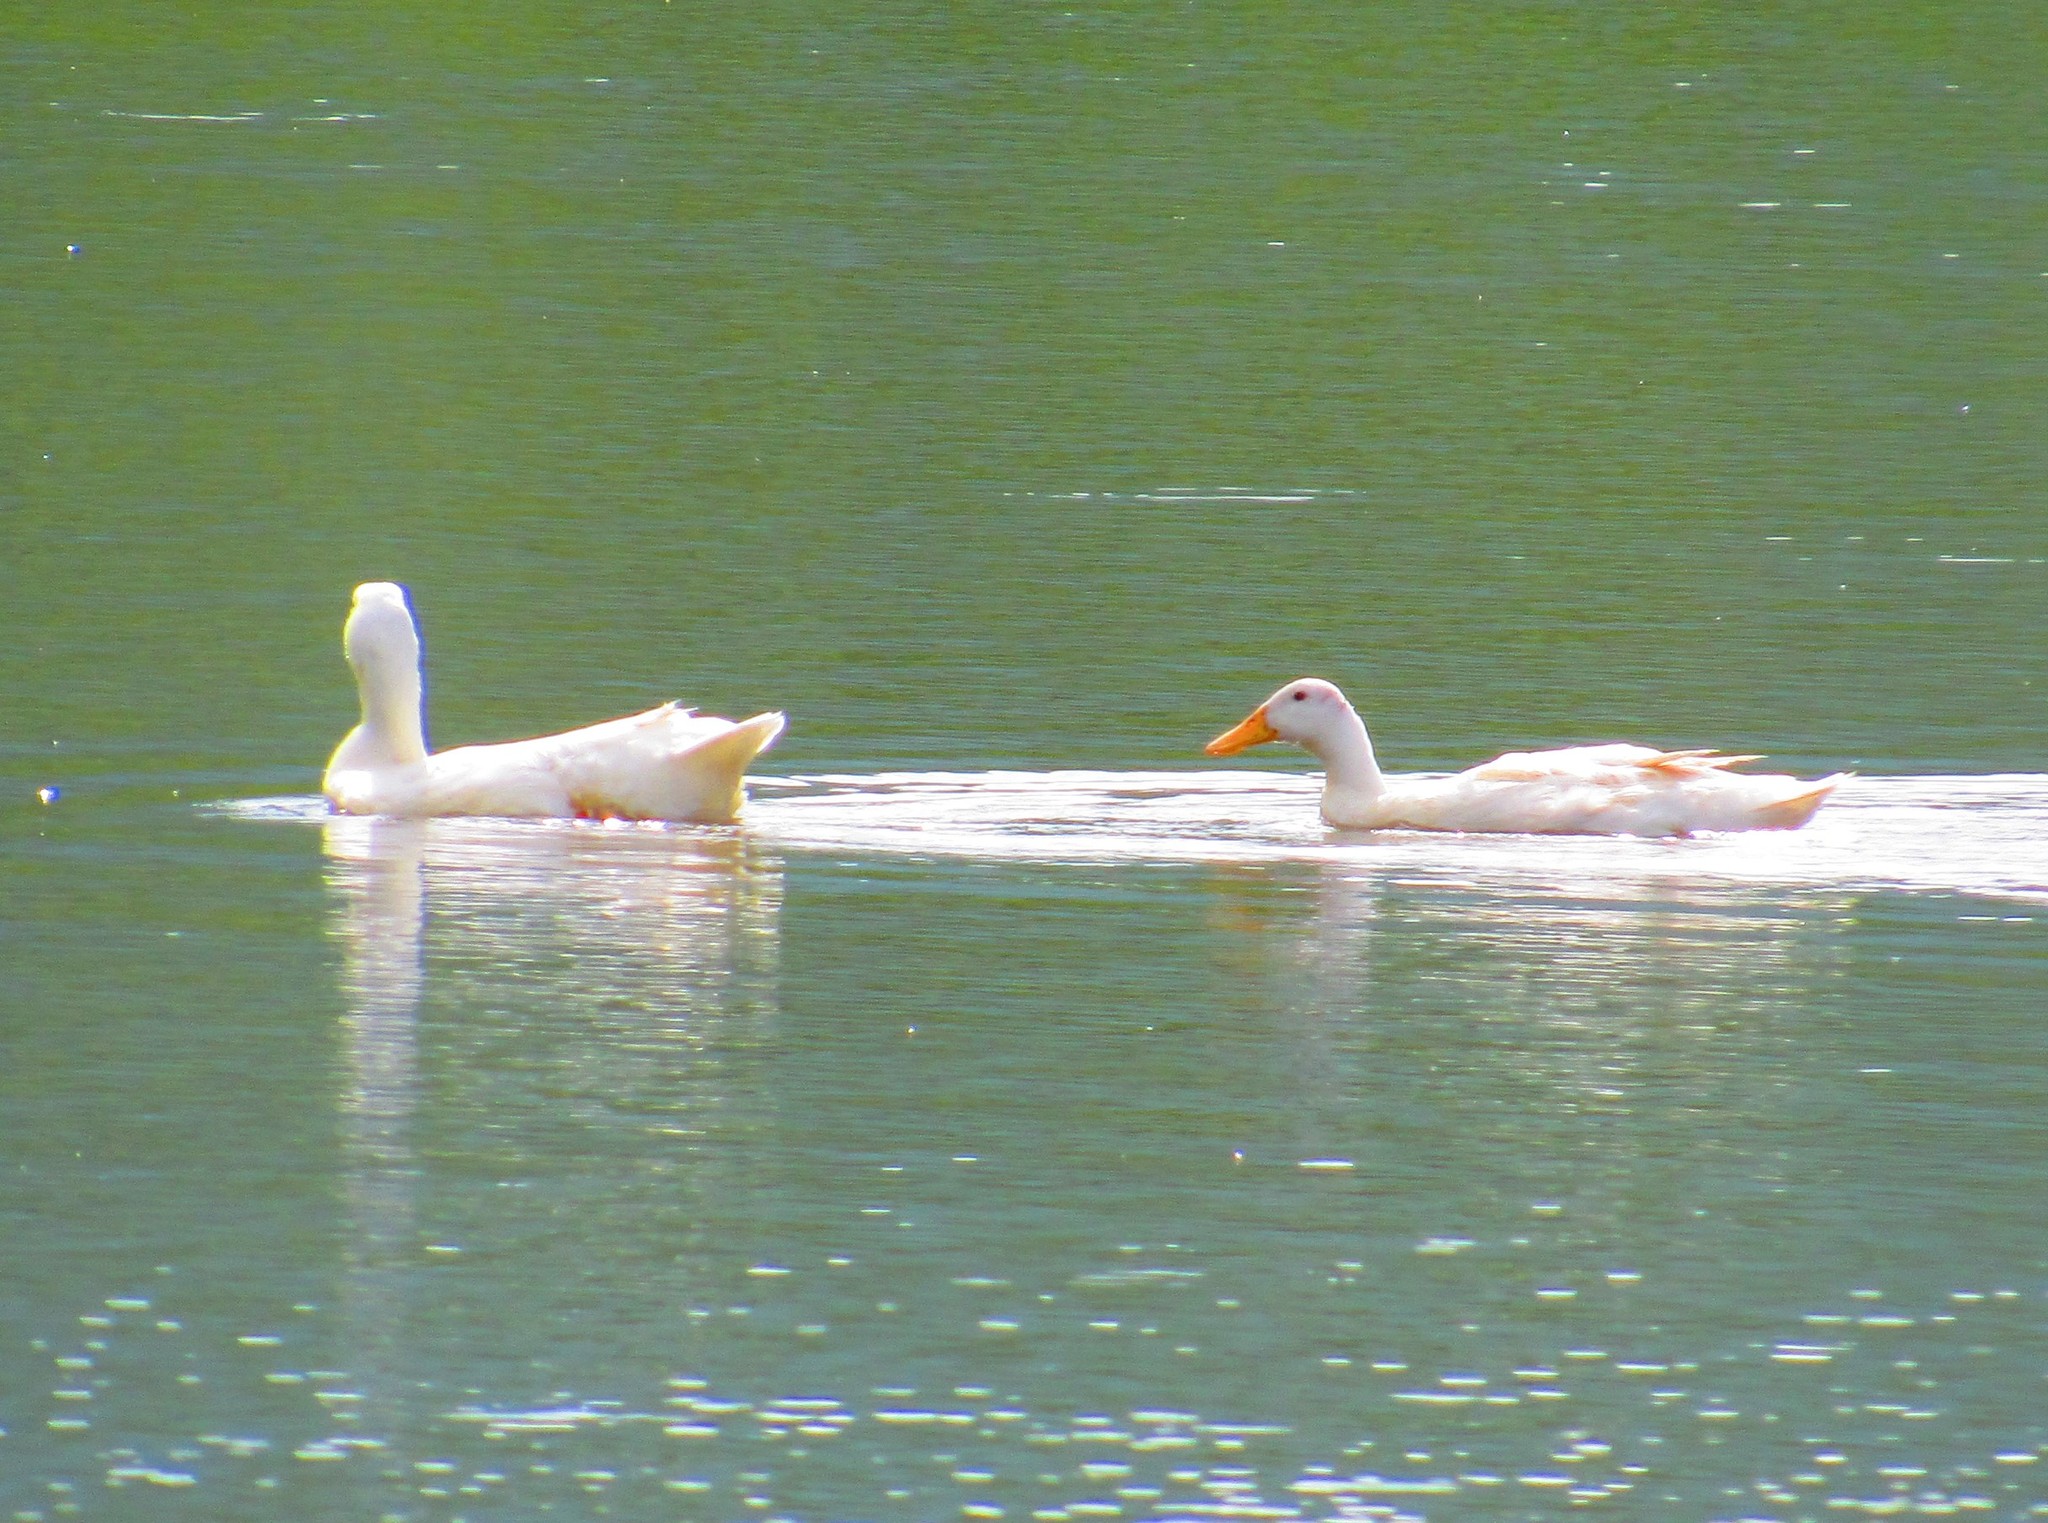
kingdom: Animalia
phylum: Chordata
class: Aves
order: Anseriformes
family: Anatidae
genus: Anas
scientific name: Anas platyrhynchos
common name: Mallard
